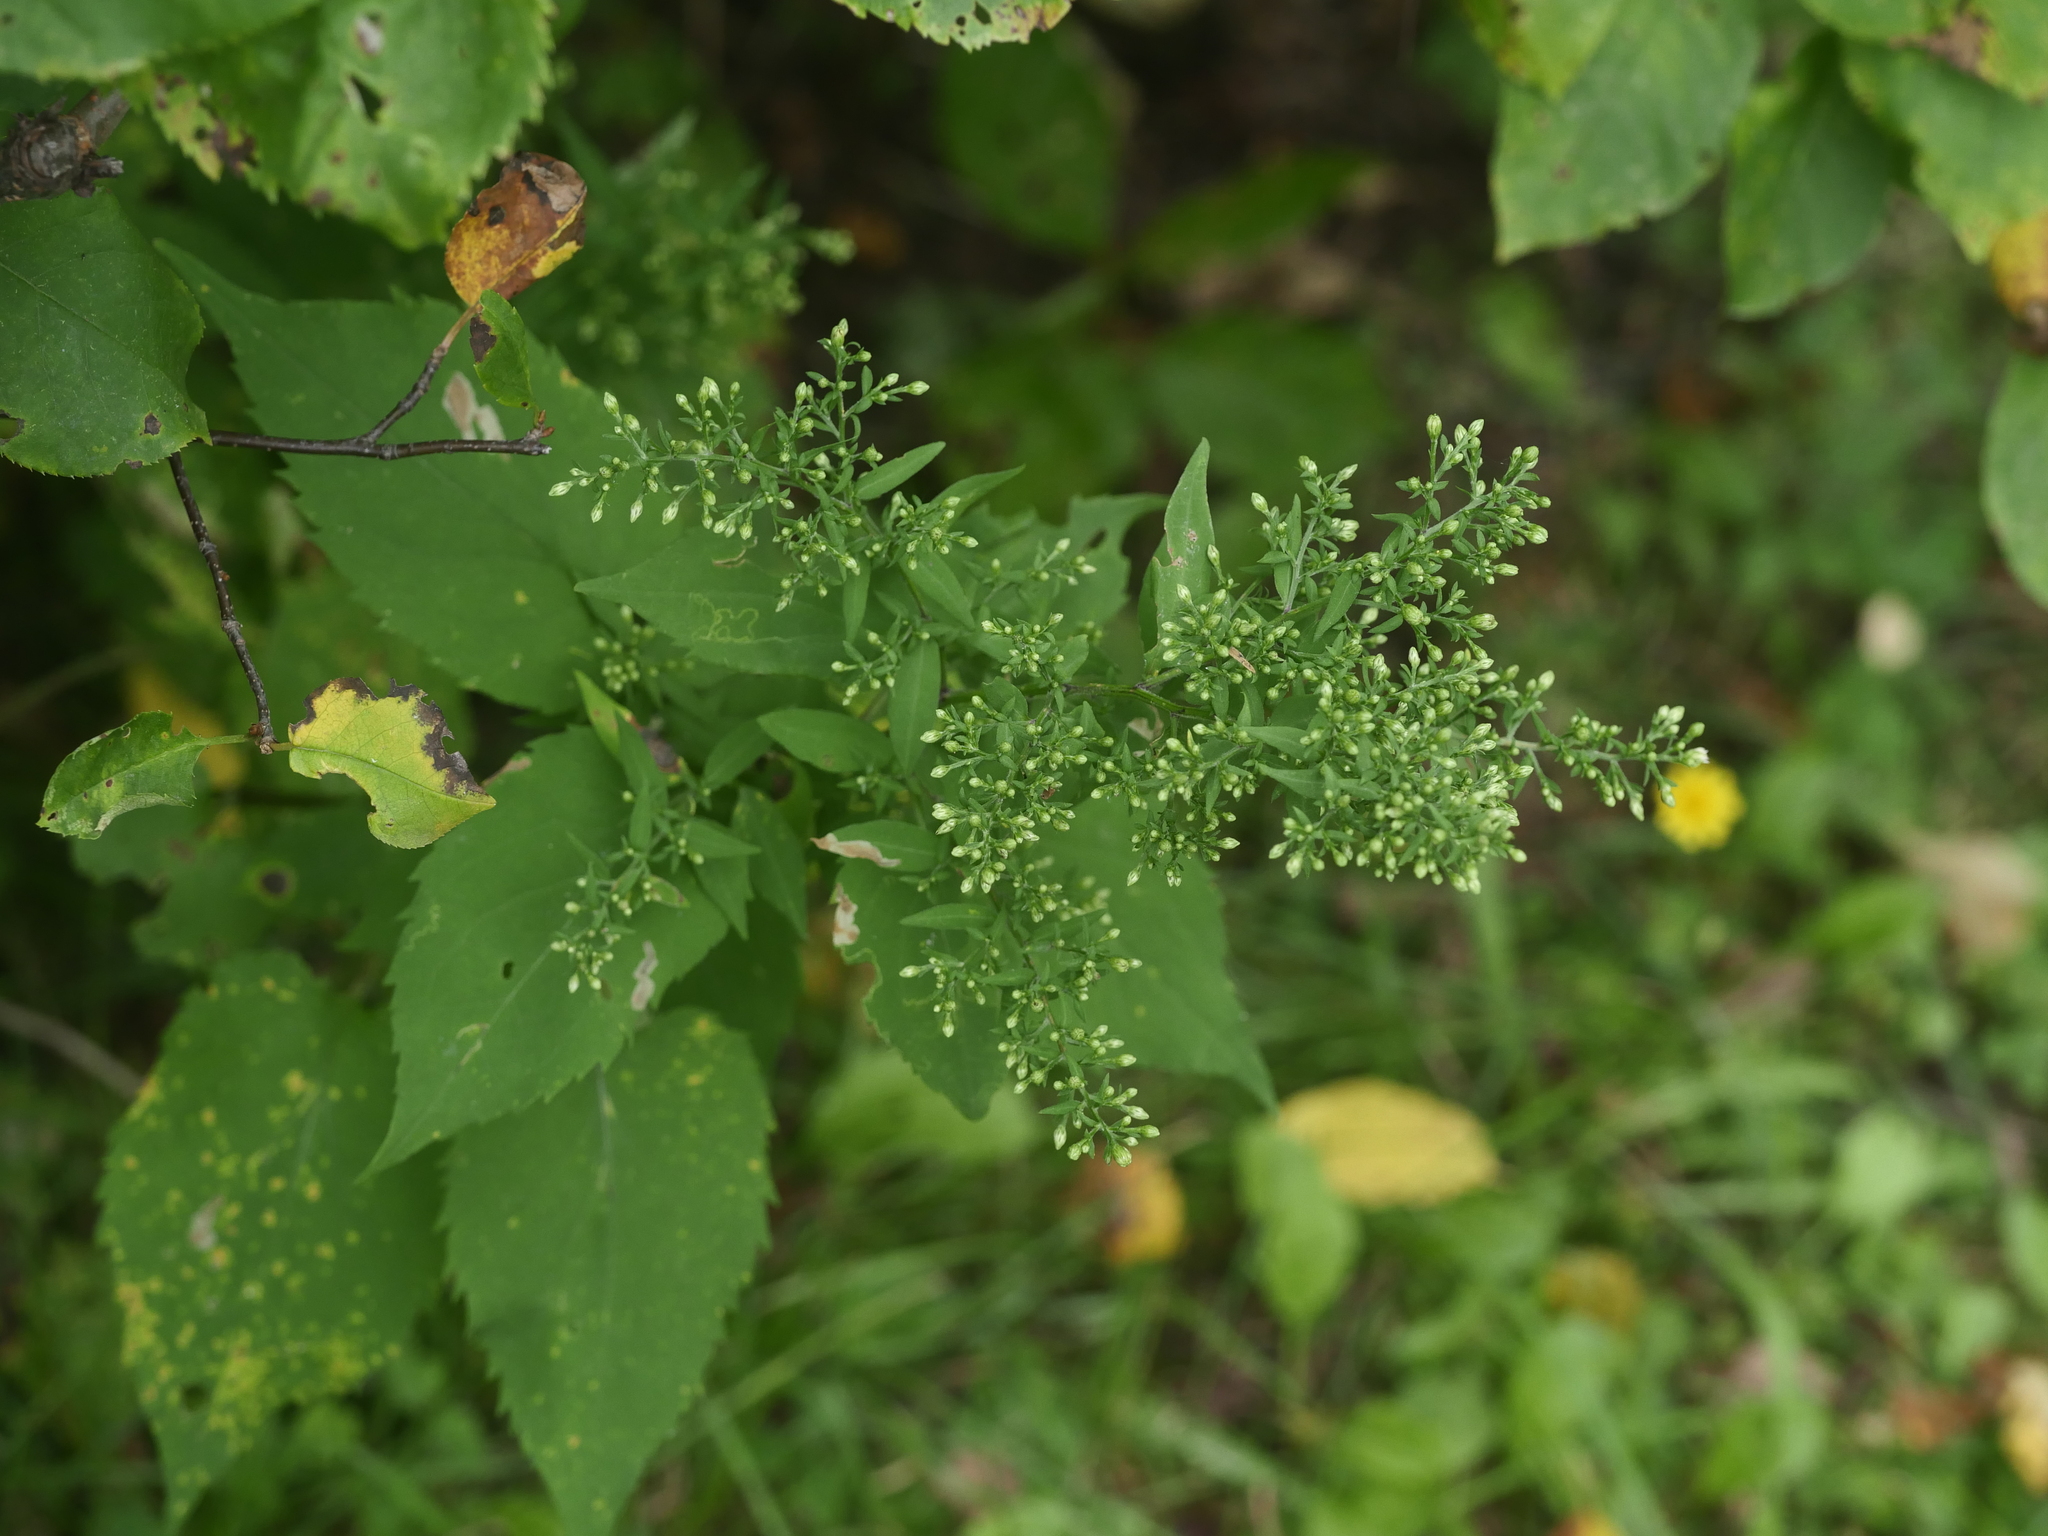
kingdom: Plantae
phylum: Tracheophyta
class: Magnoliopsida
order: Asterales
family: Asteraceae
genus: Symphyotrichum
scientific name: Symphyotrichum cordifolium
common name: Beeweed
